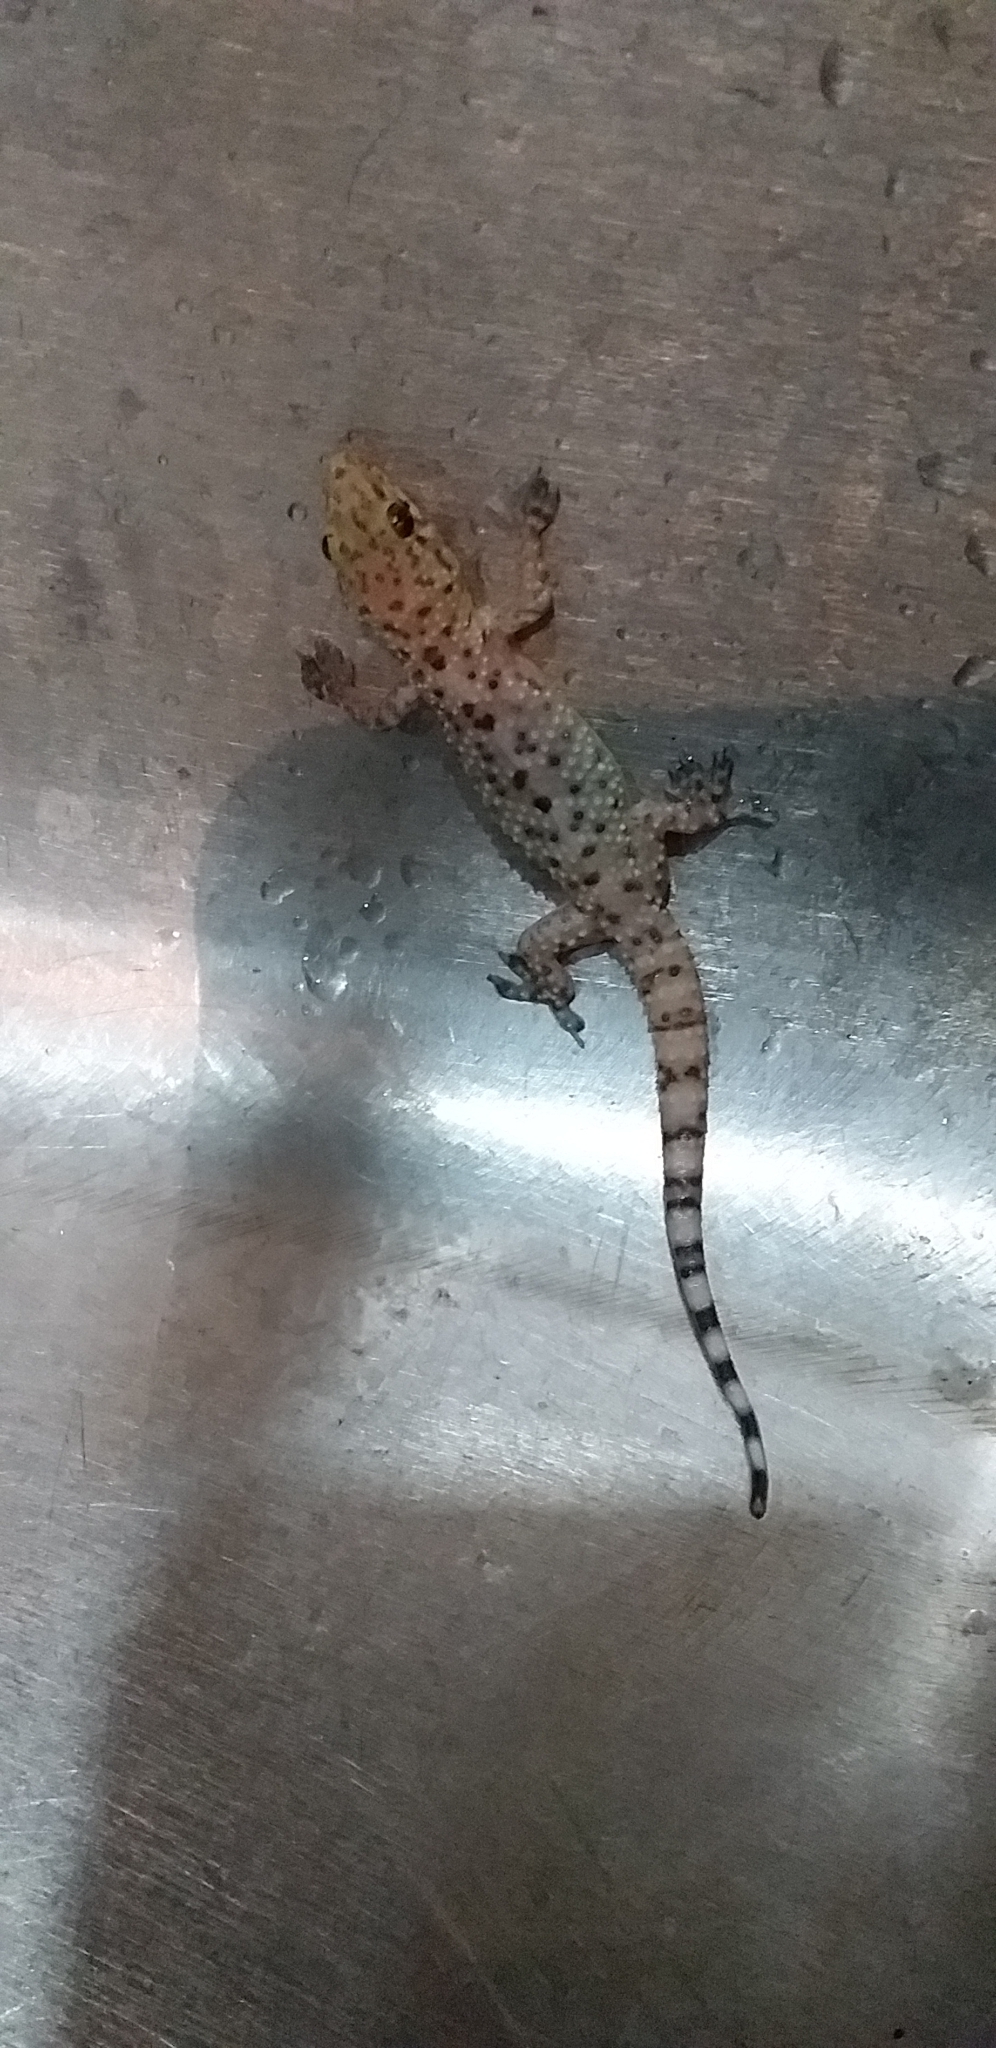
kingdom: Animalia
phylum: Chordata
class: Squamata
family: Gekkonidae
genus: Hemidactylus
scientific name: Hemidactylus turcicus
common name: Turkish gecko
